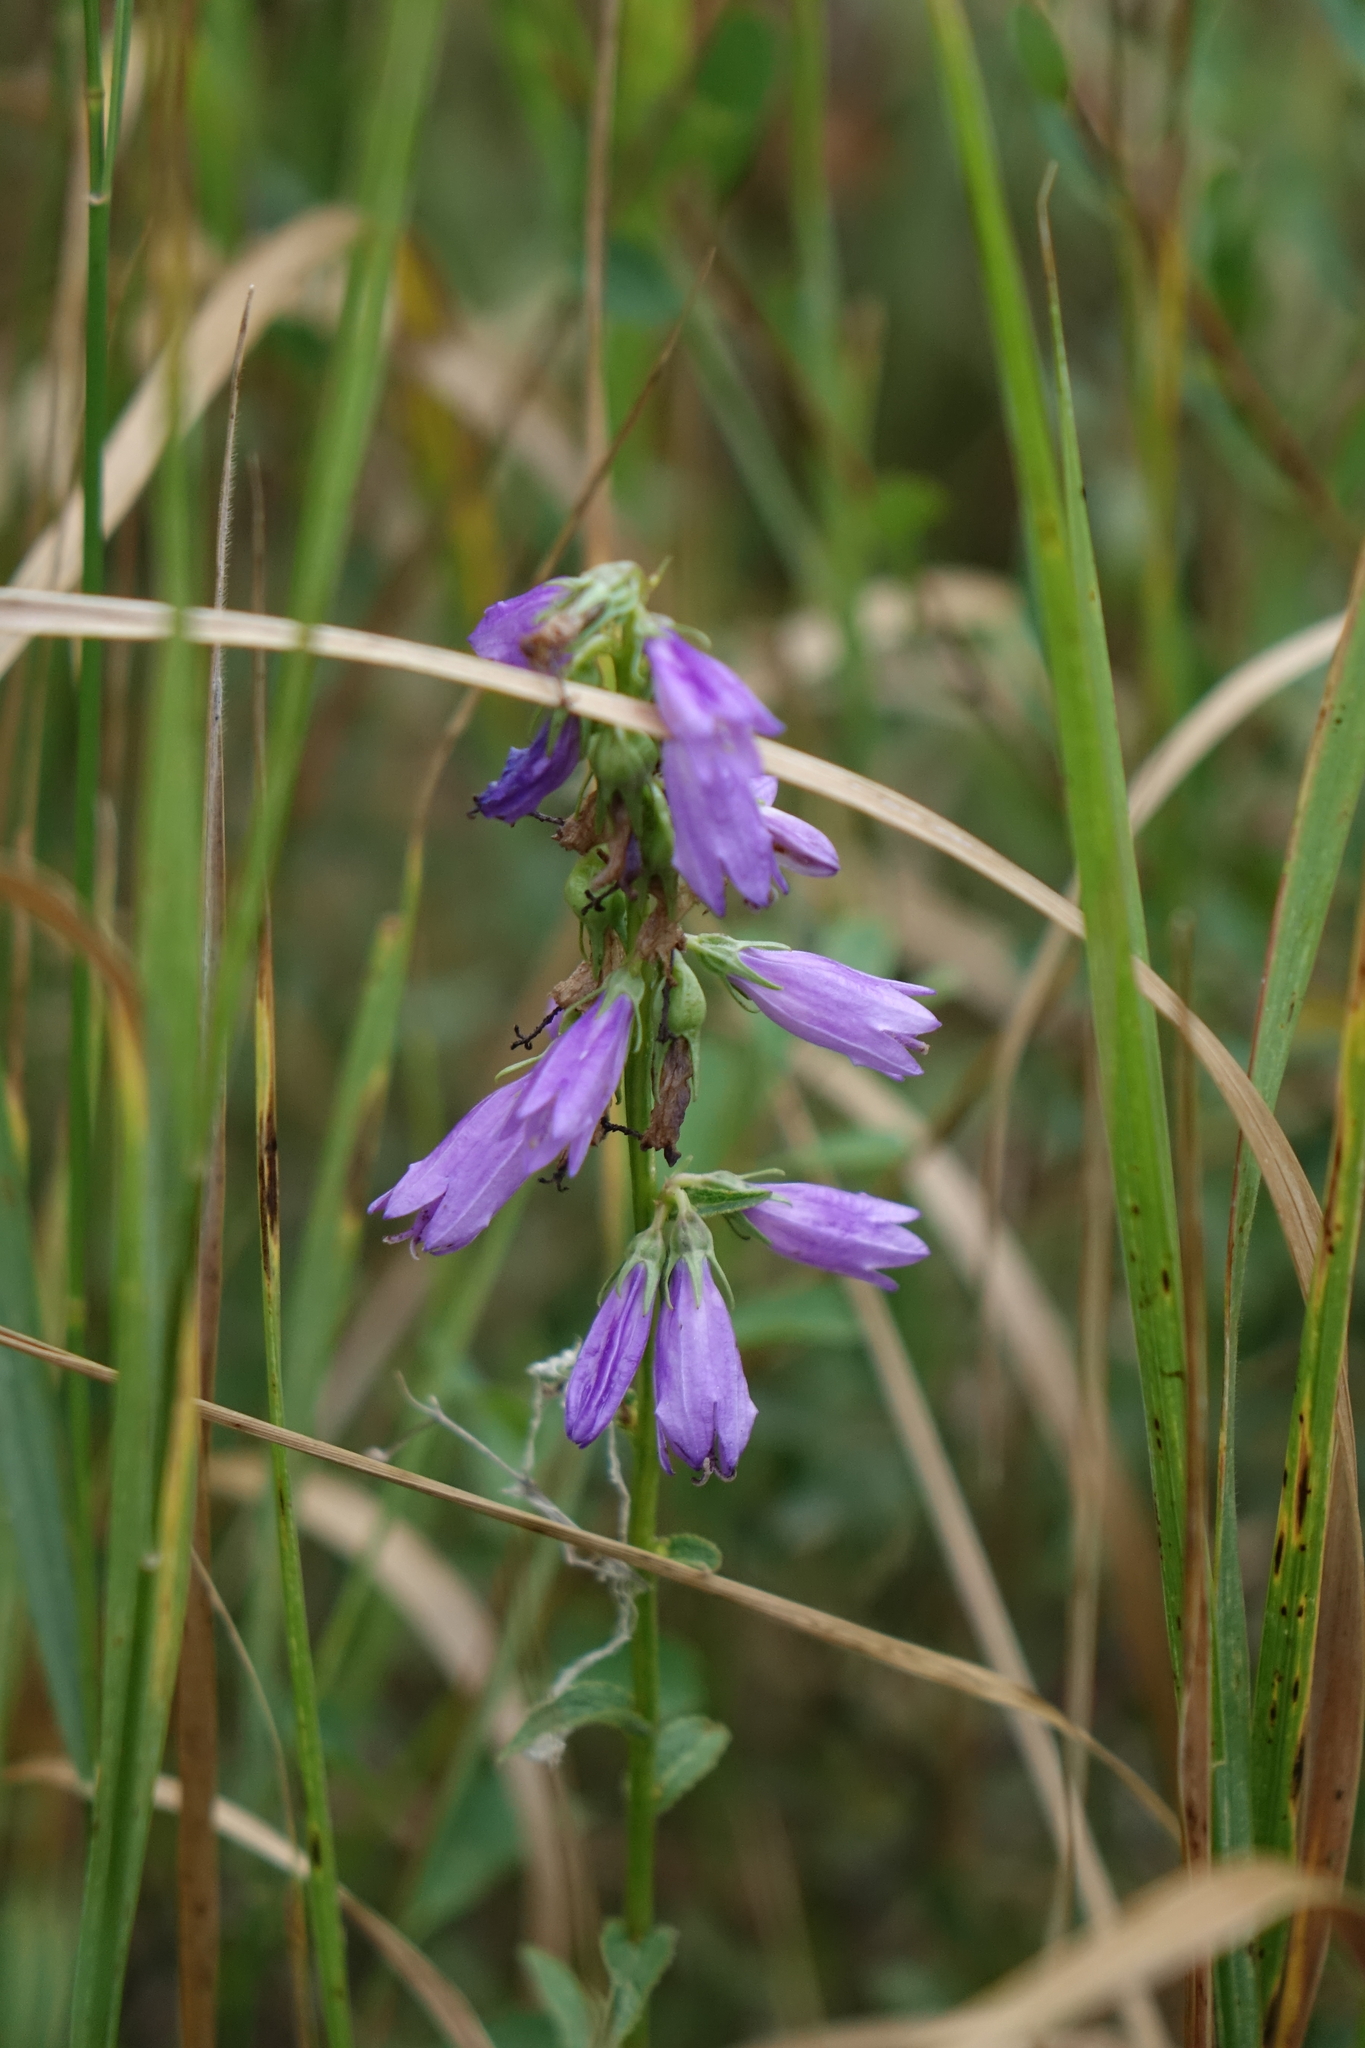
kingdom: Plantae
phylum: Tracheophyta
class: Magnoliopsida
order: Asterales
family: Campanulaceae
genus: Campanula
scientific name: Campanula rapunculoides
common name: Creeping bellflower
